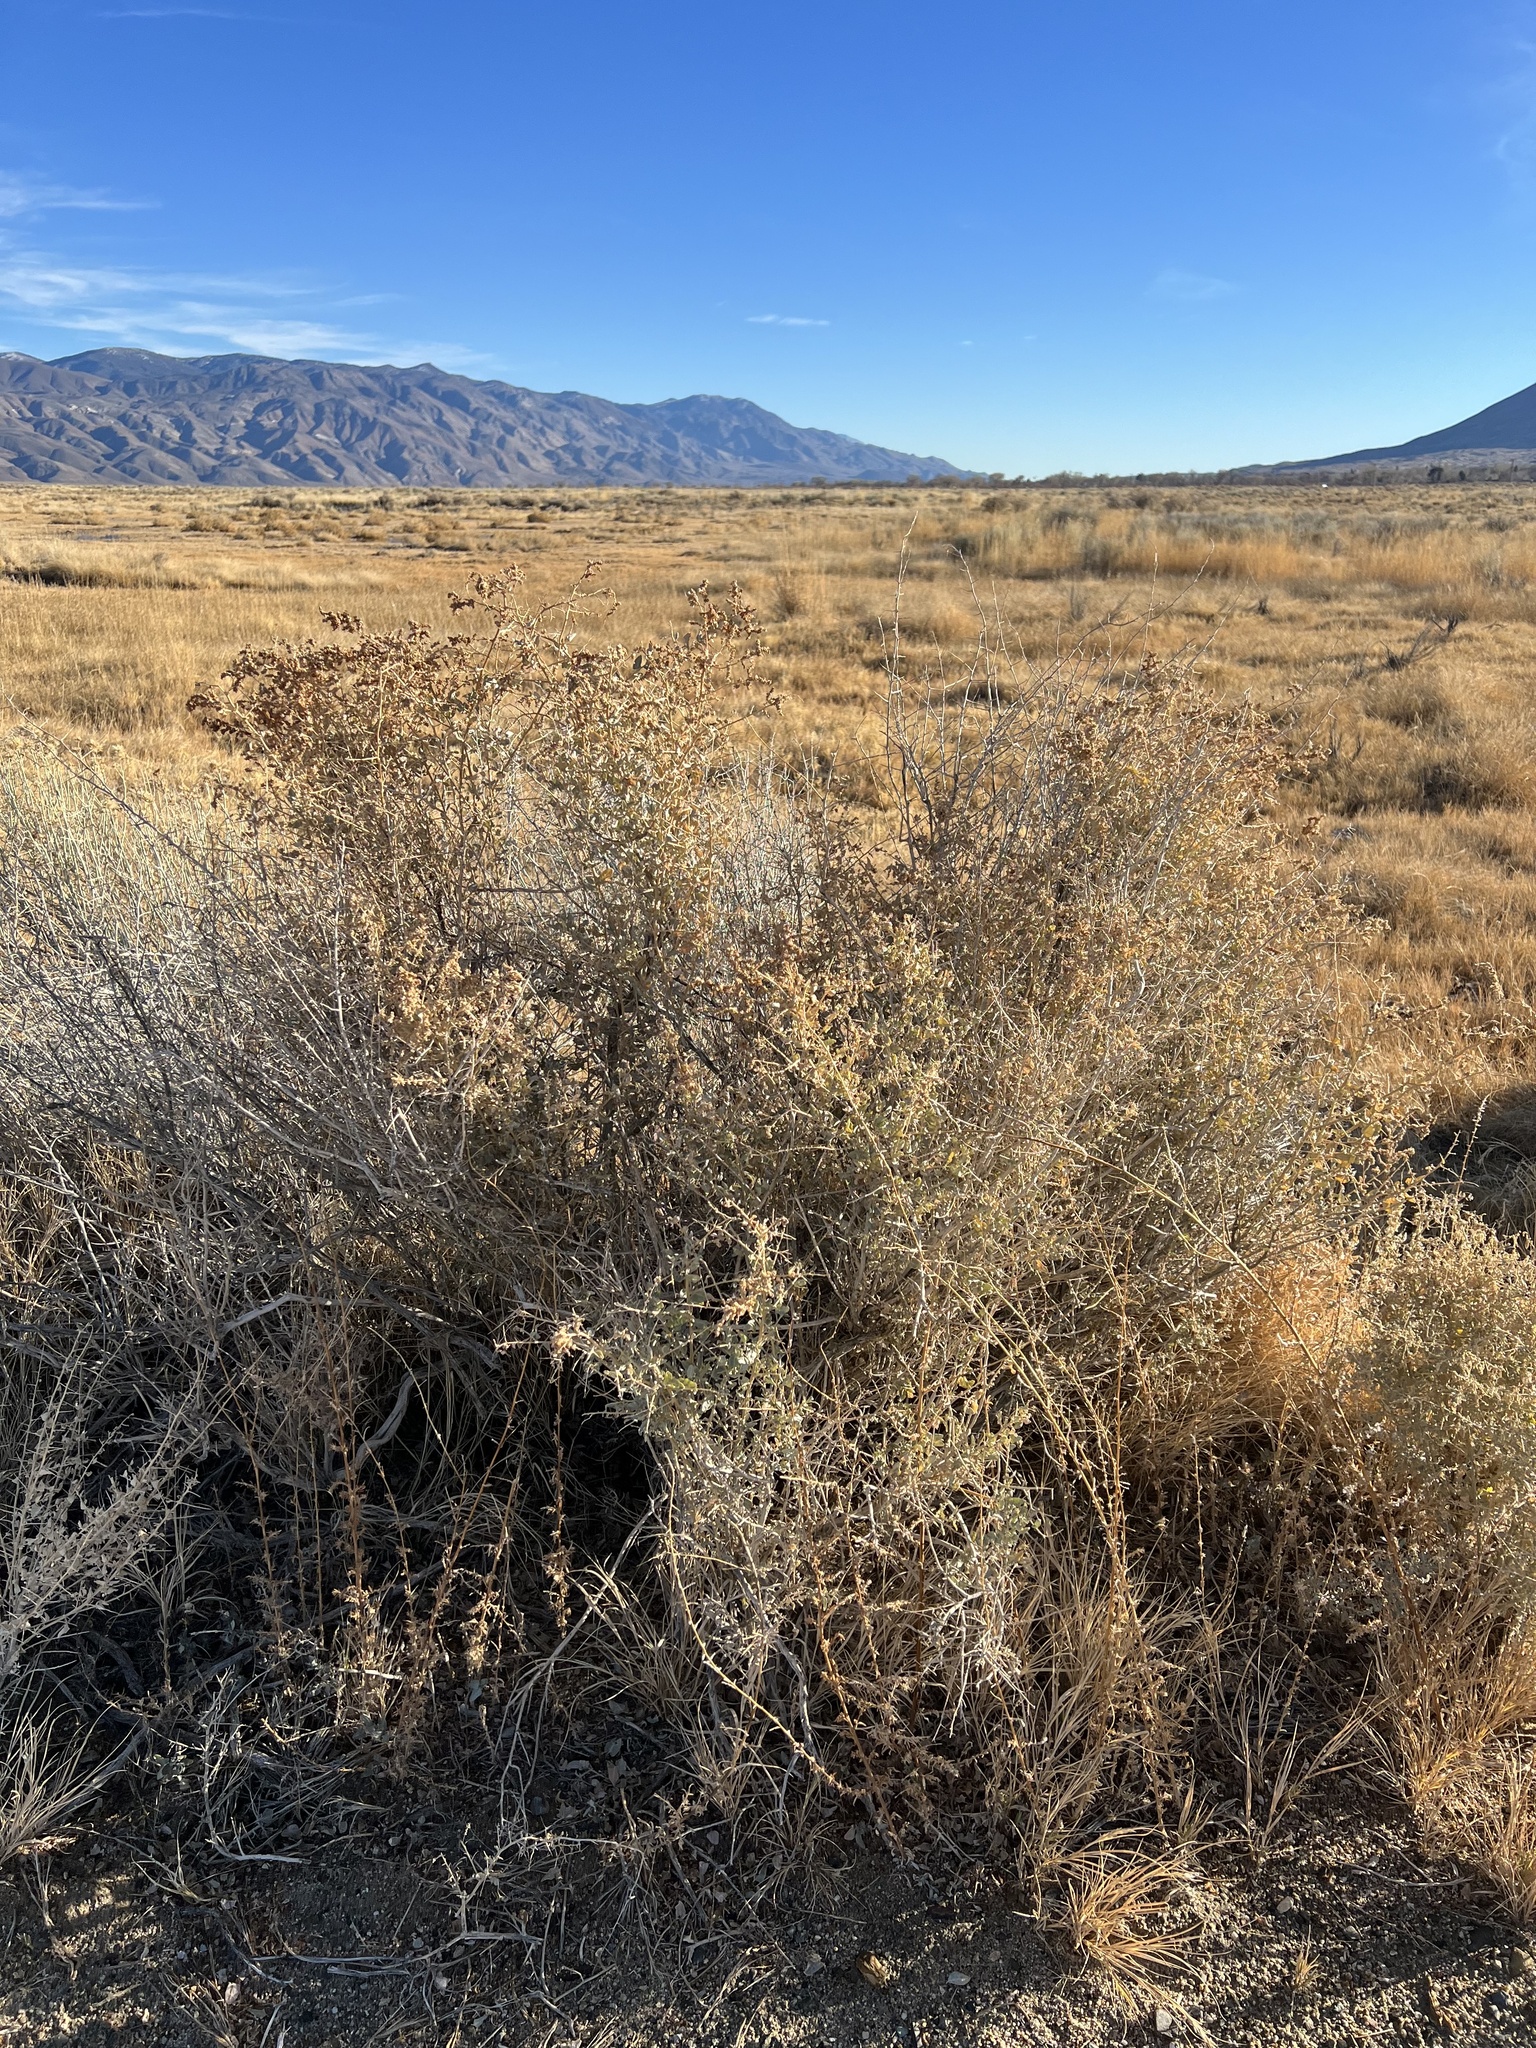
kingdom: Plantae
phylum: Tracheophyta
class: Magnoliopsida
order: Caryophyllales
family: Amaranthaceae
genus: Atriplex
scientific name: Atriplex torreyi
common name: Torrey's saltbush
